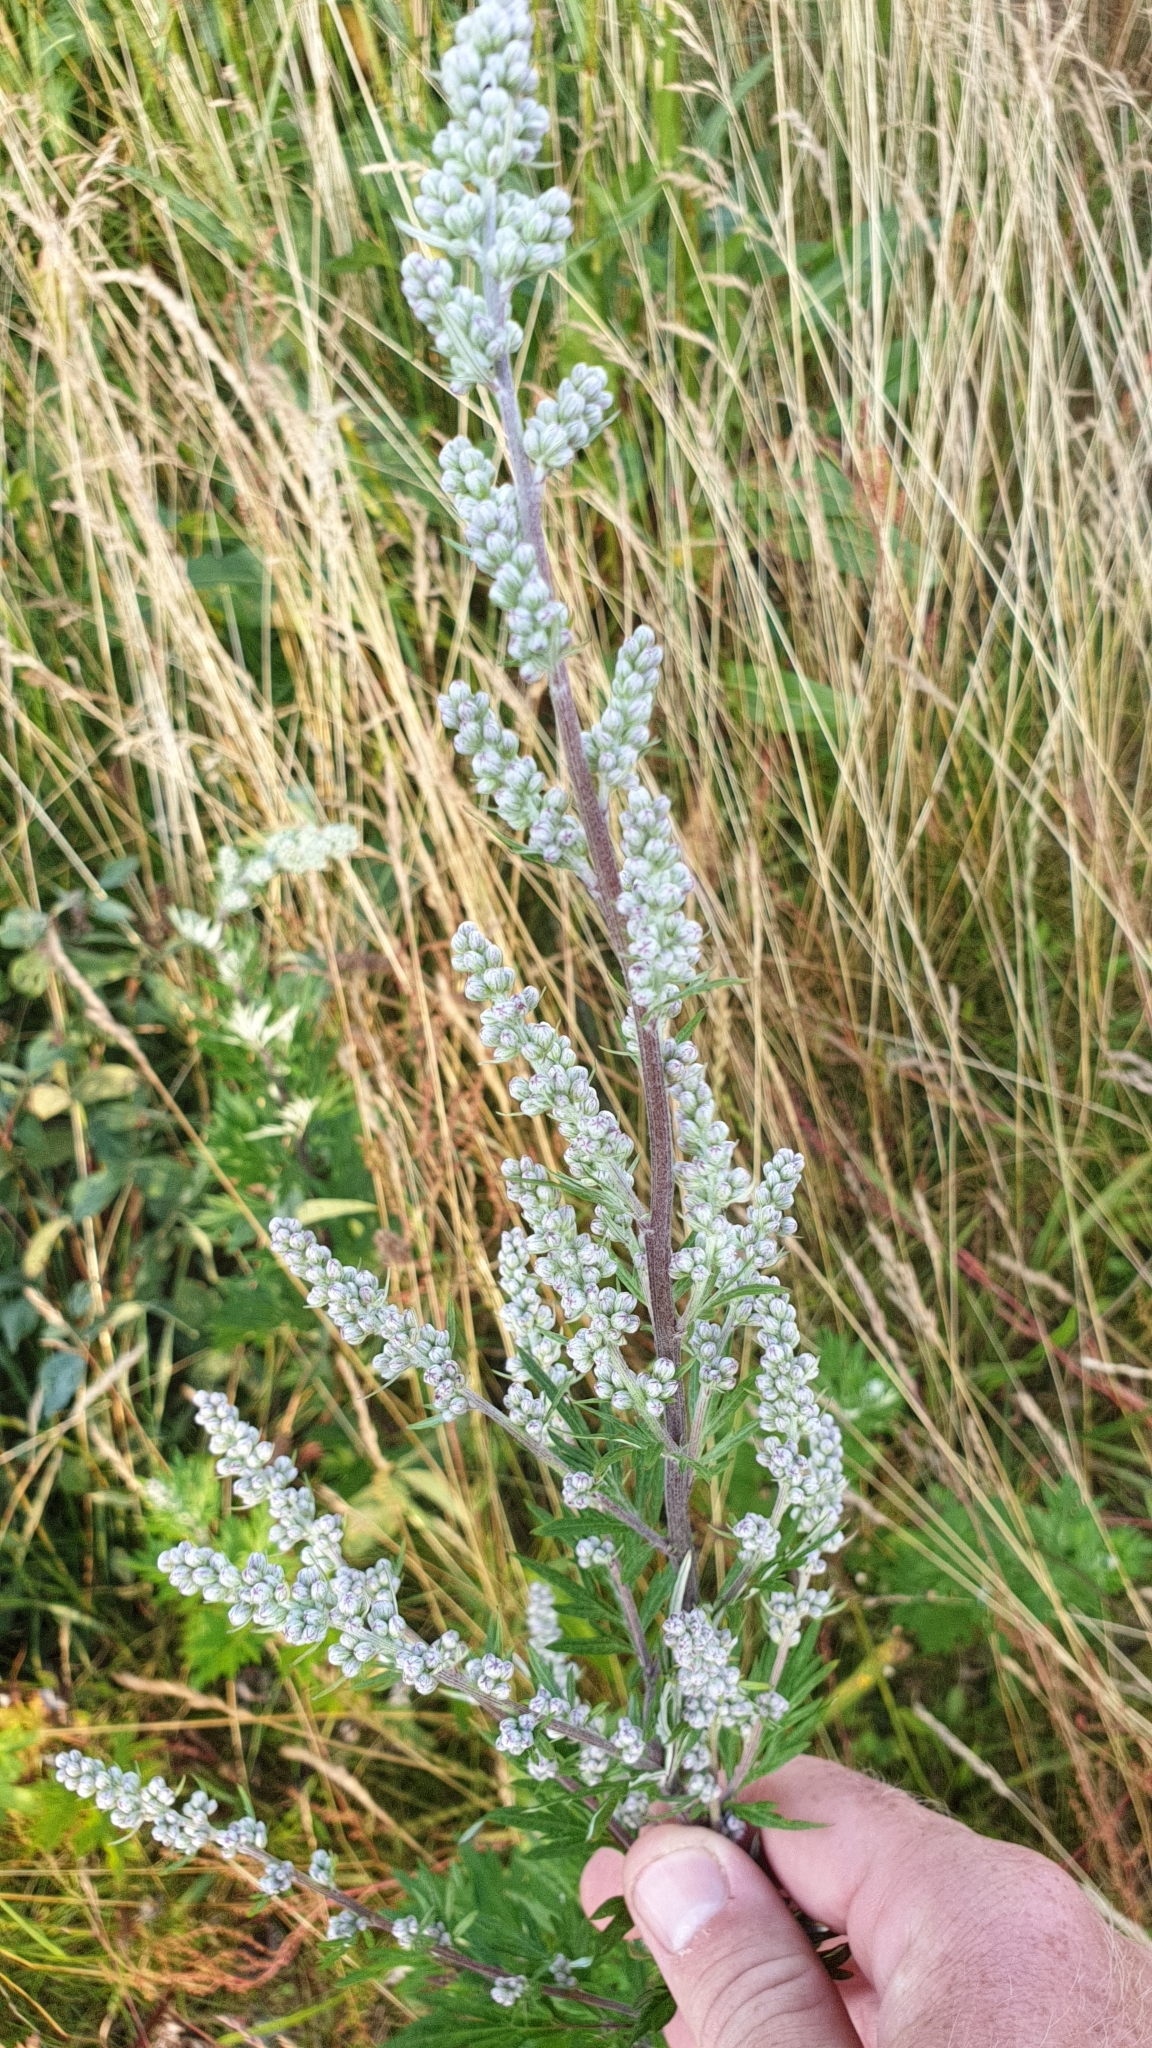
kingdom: Plantae
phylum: Tracheophyta
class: Magnoliopsida
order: Asterales
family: Asteraceae
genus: Artemisia
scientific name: Artemisia vulgaris
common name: Mugwort
